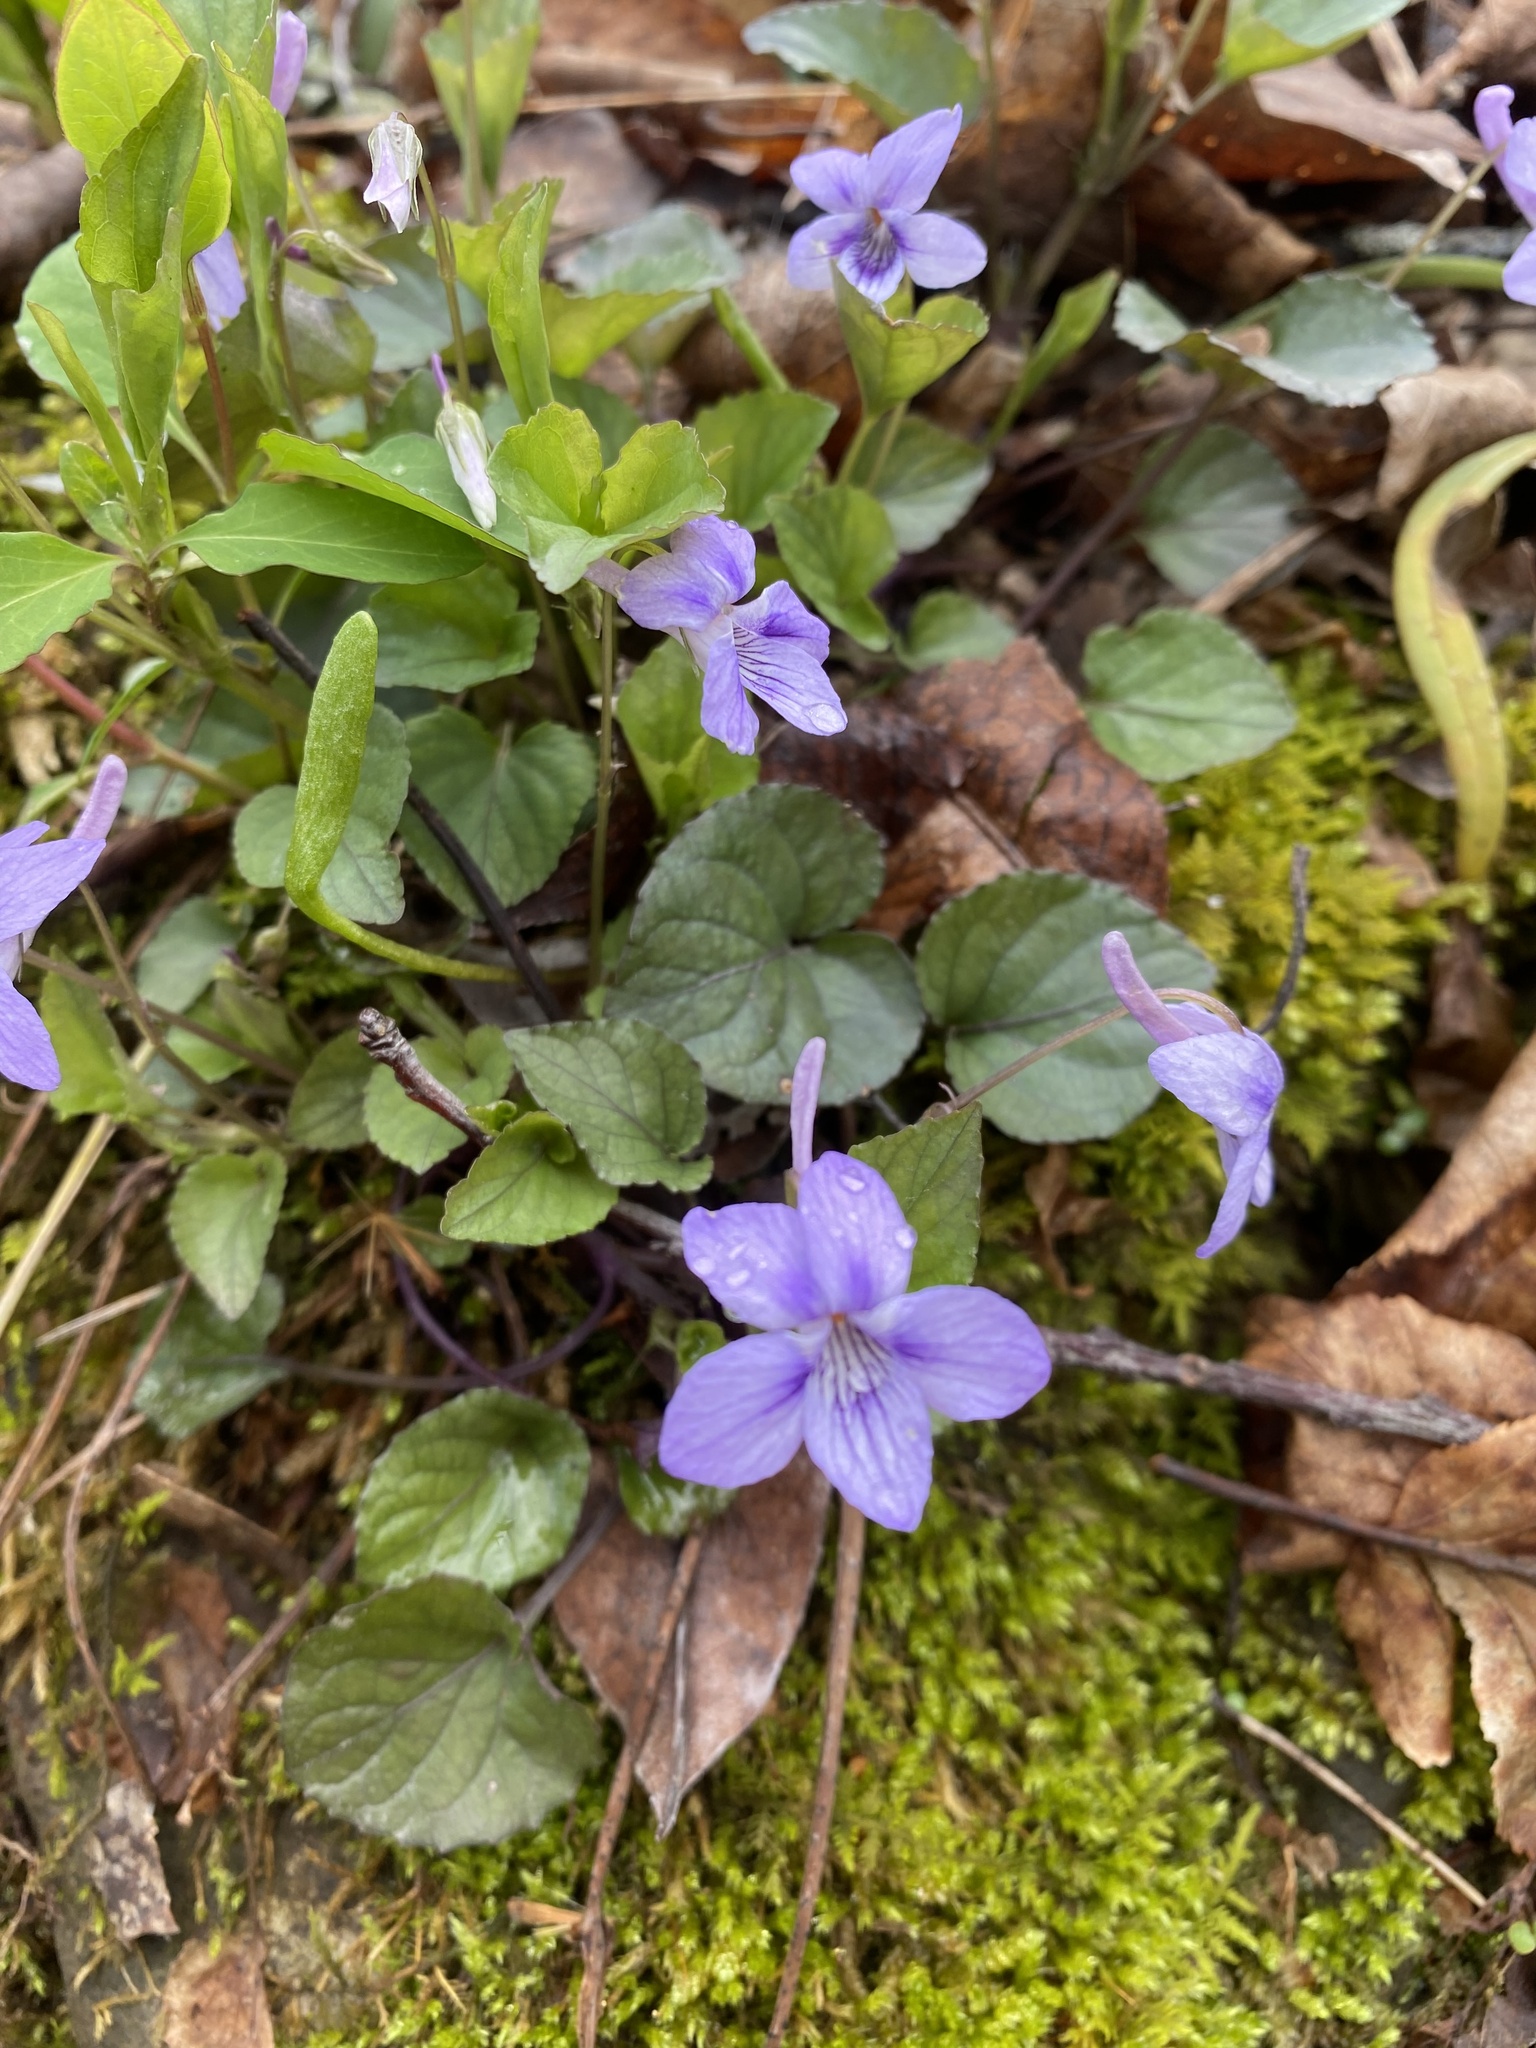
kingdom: Plantae
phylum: Tracheophyta
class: Magnoliopsida
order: Malpighiales
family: Violaceae
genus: Viola
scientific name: Viola rostrata
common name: Long-spur violet
